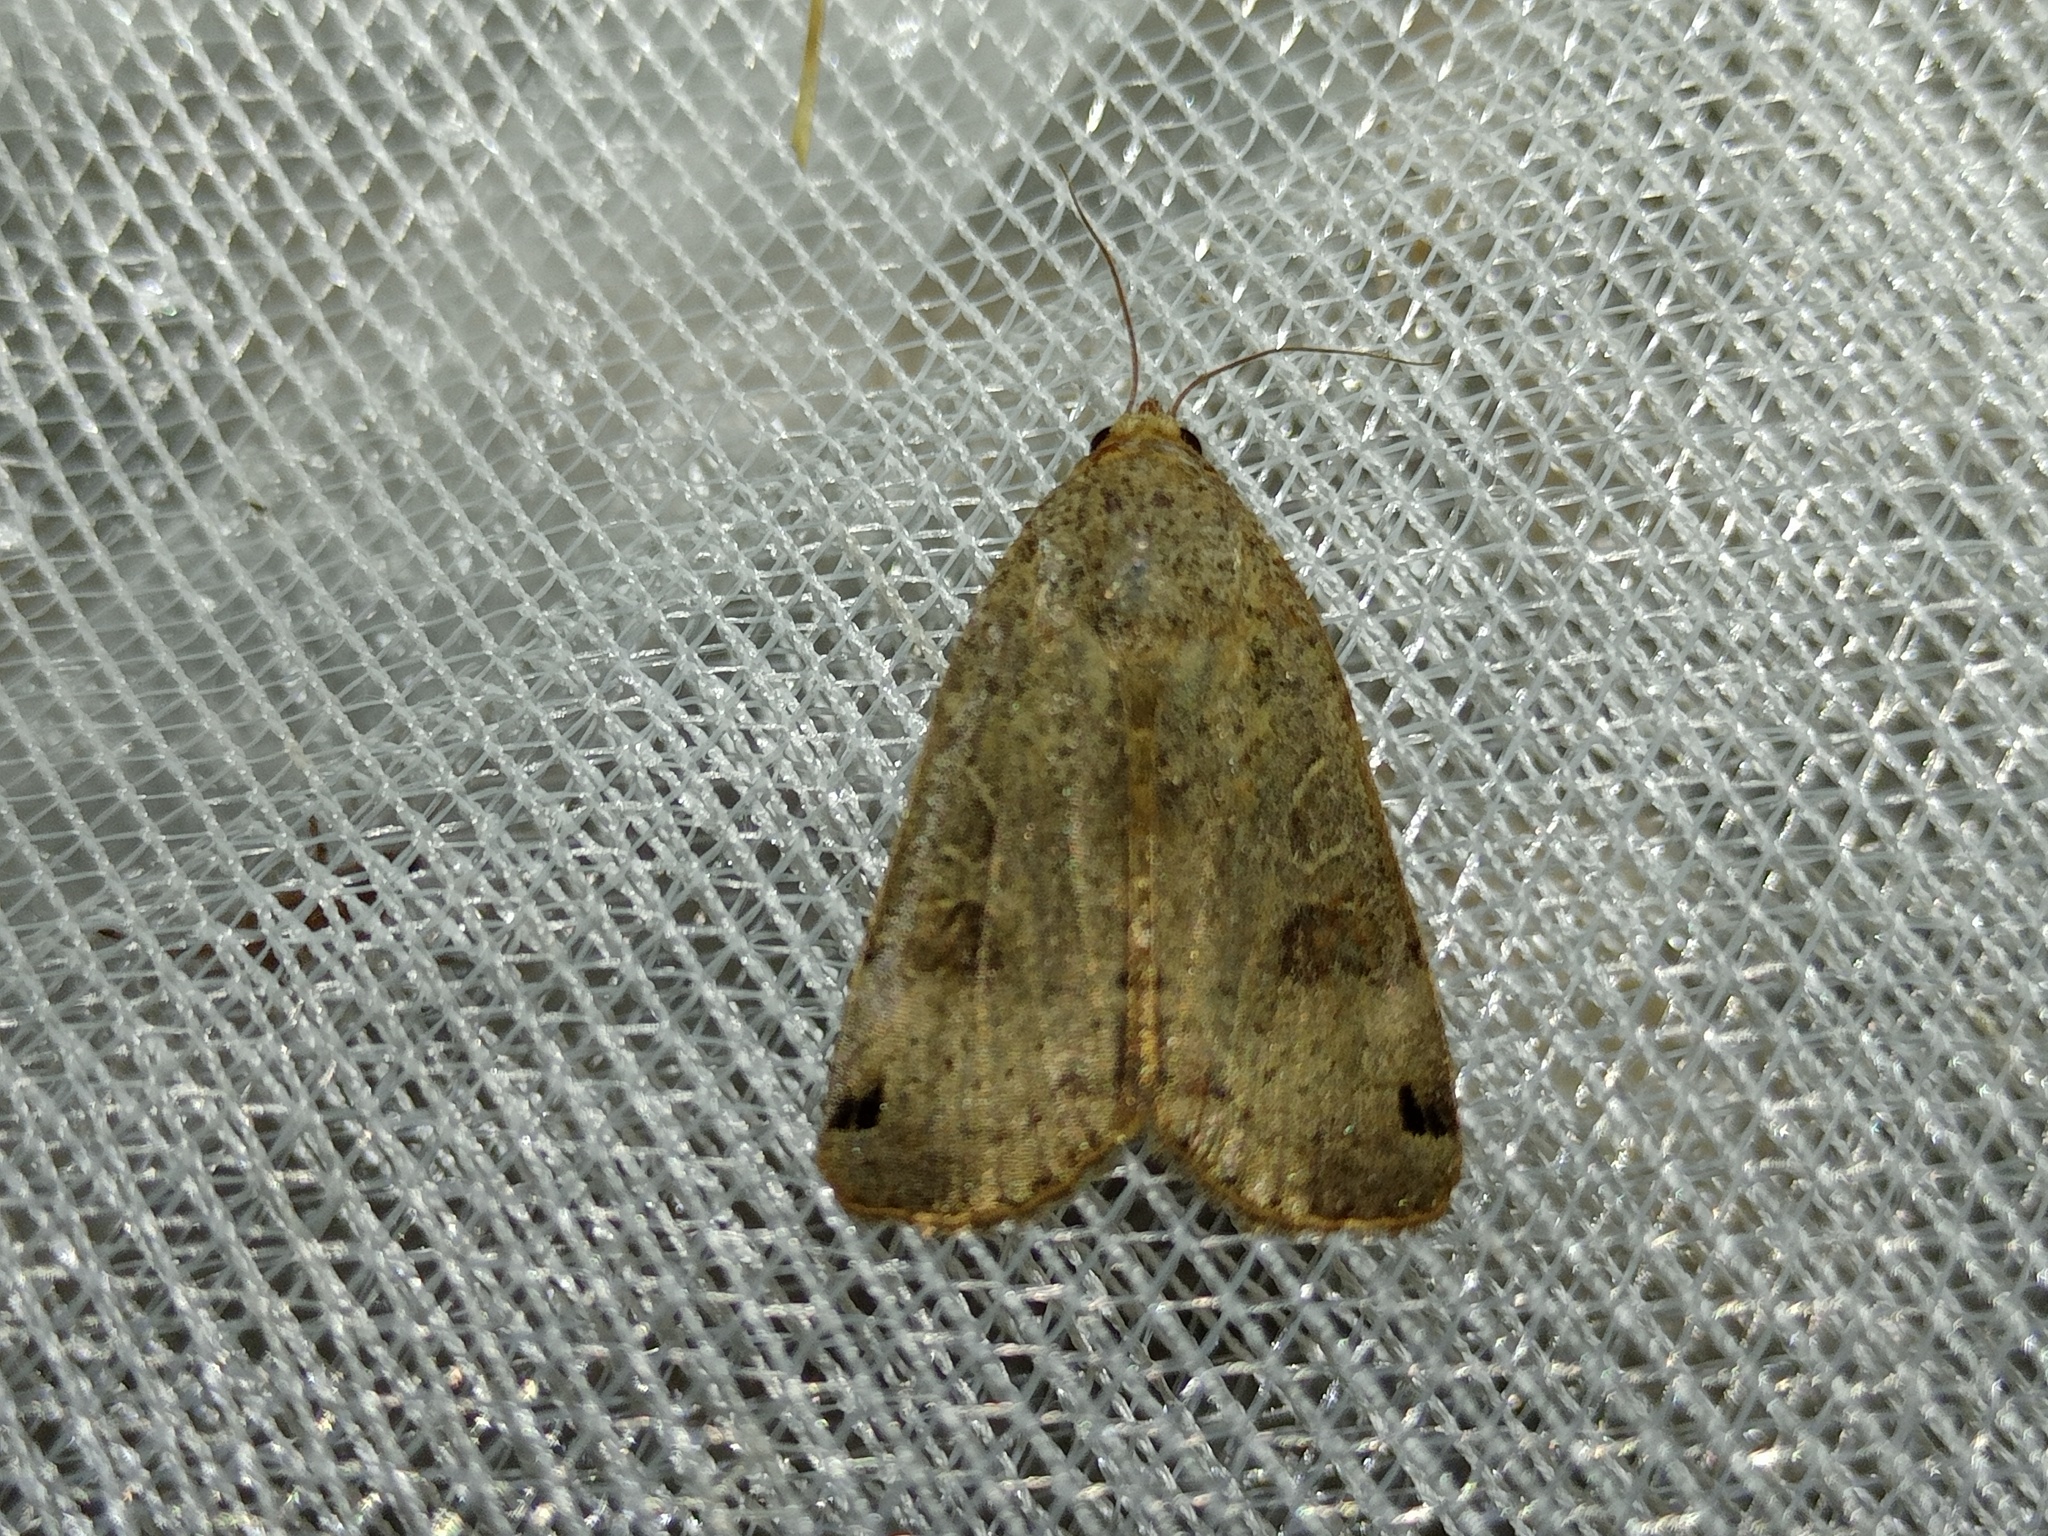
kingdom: Animalia
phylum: Arthropoda
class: Insecta
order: Lepidoptera
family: Noctuidae
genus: Noctua
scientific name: Noctua orbona
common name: Lunar yellow underwing
